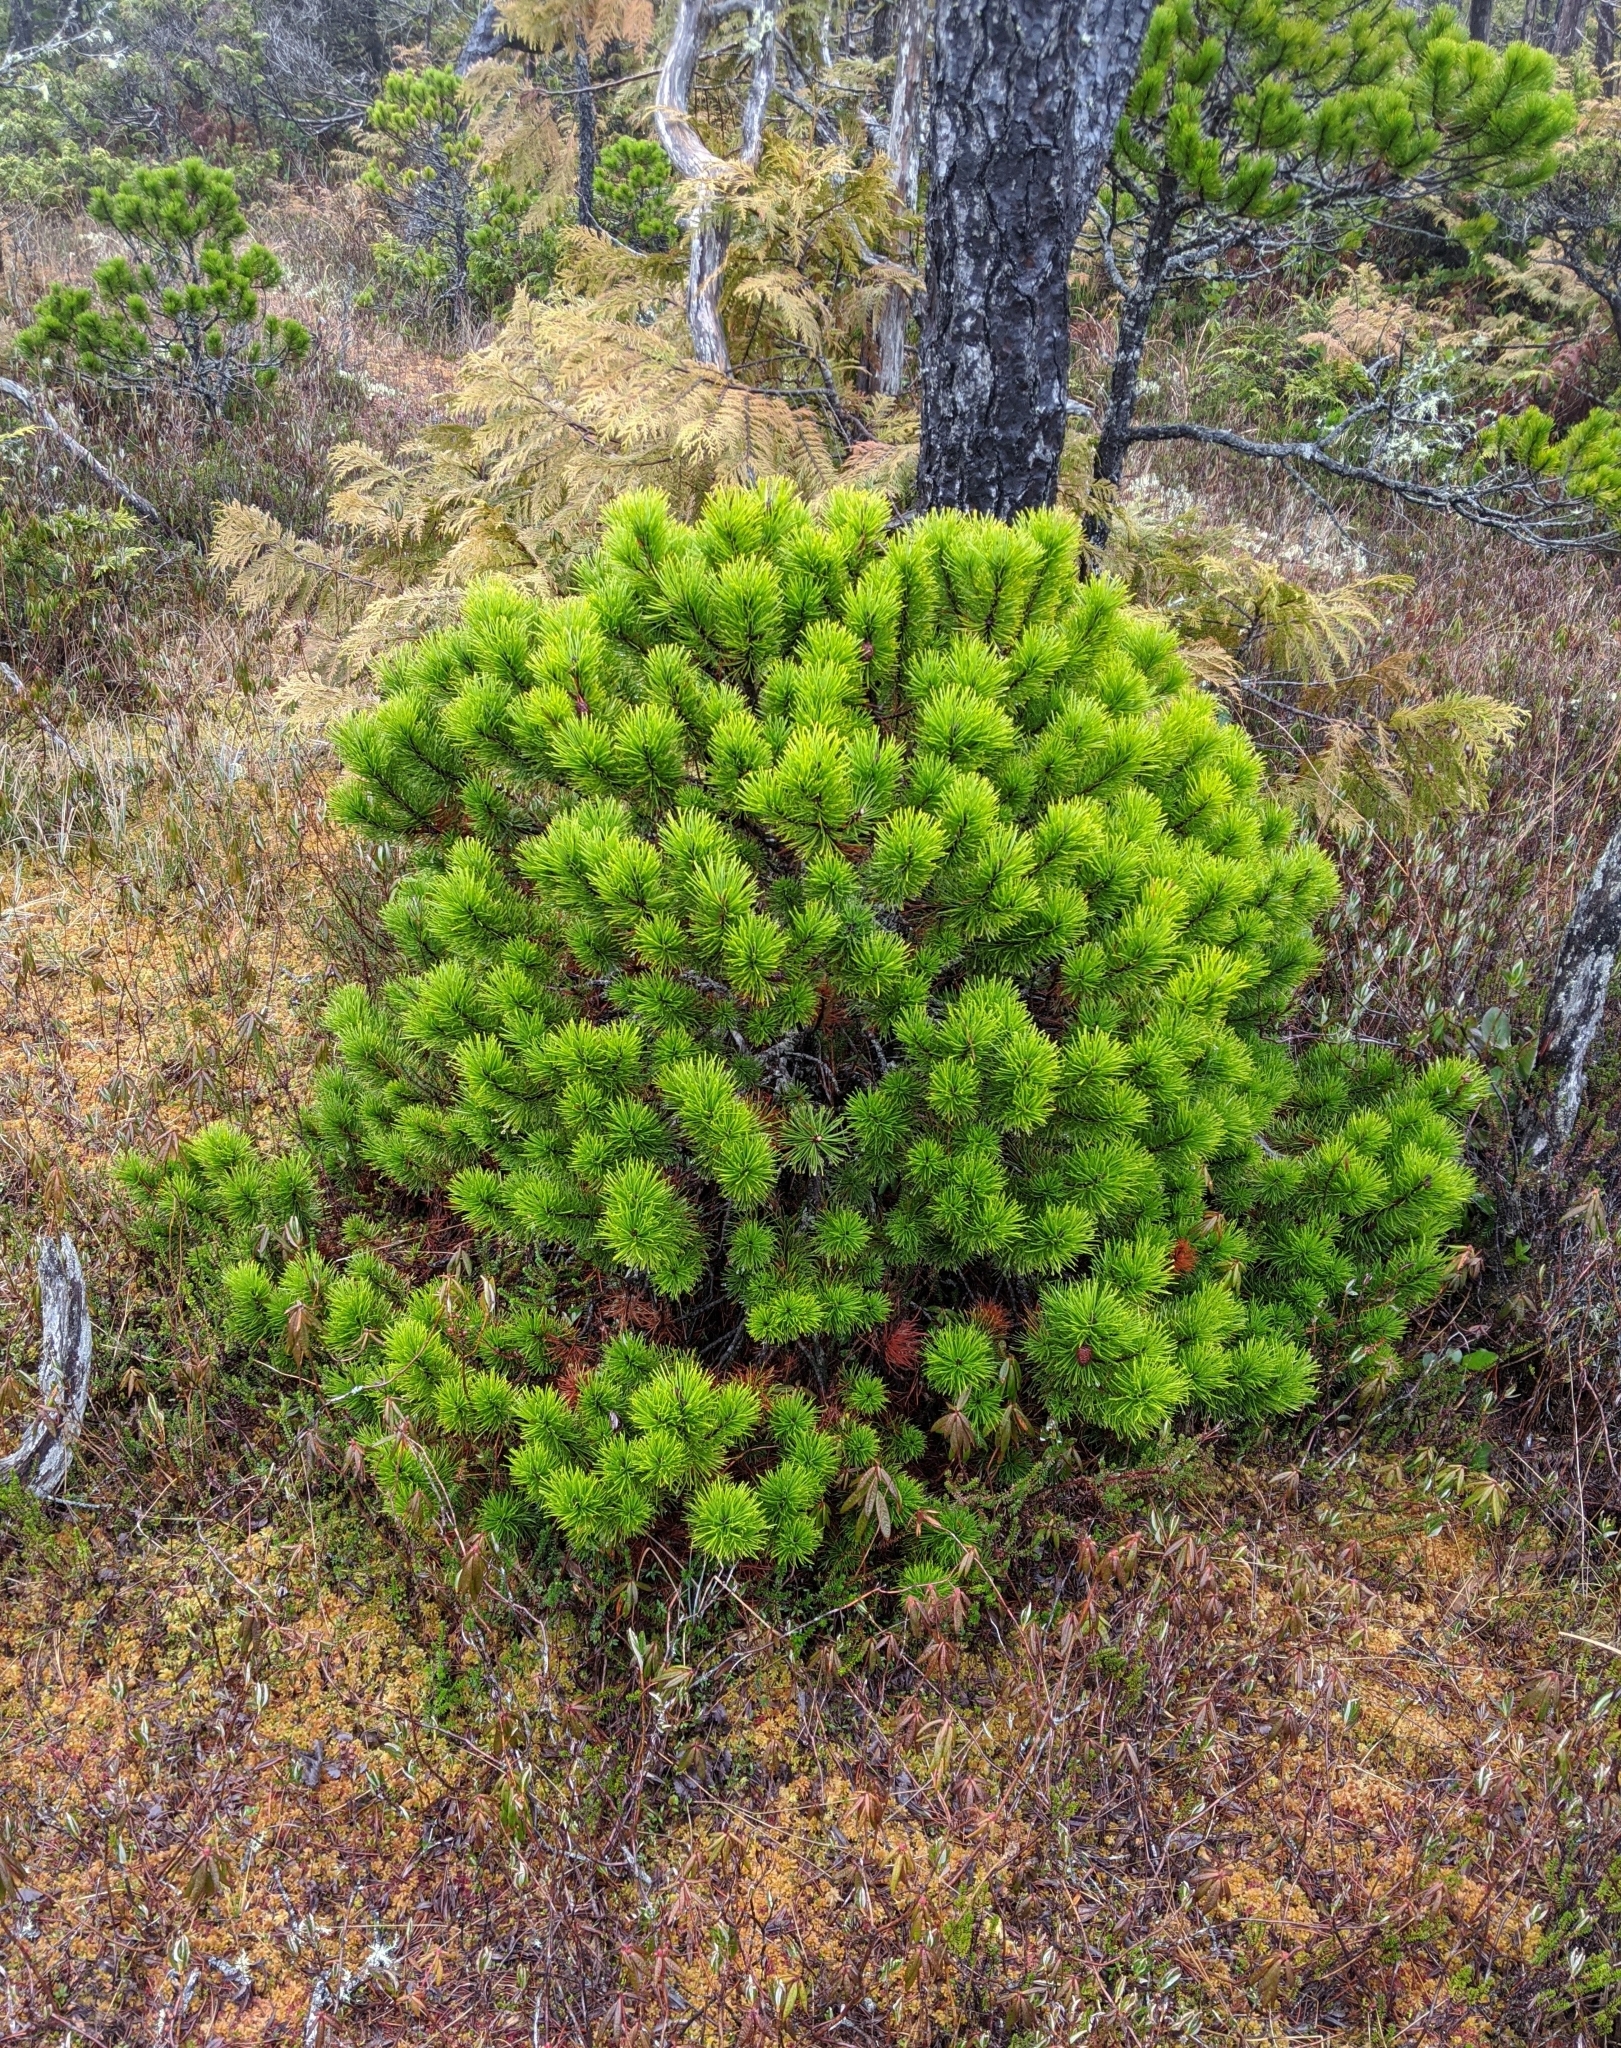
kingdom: Plantae
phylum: Tracheophyta
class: Pinopsida
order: Pinales
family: Pinaceae
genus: Pinus
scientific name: Pinus contorta
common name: Lodgepole pine
